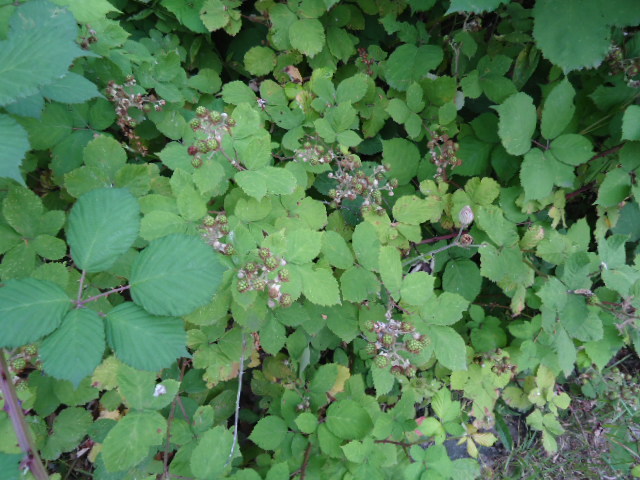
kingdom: Plantae
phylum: Tracheophyta
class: Magnoliopsida
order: Rosales
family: Rosaceae
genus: Rubus
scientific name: Rubus
